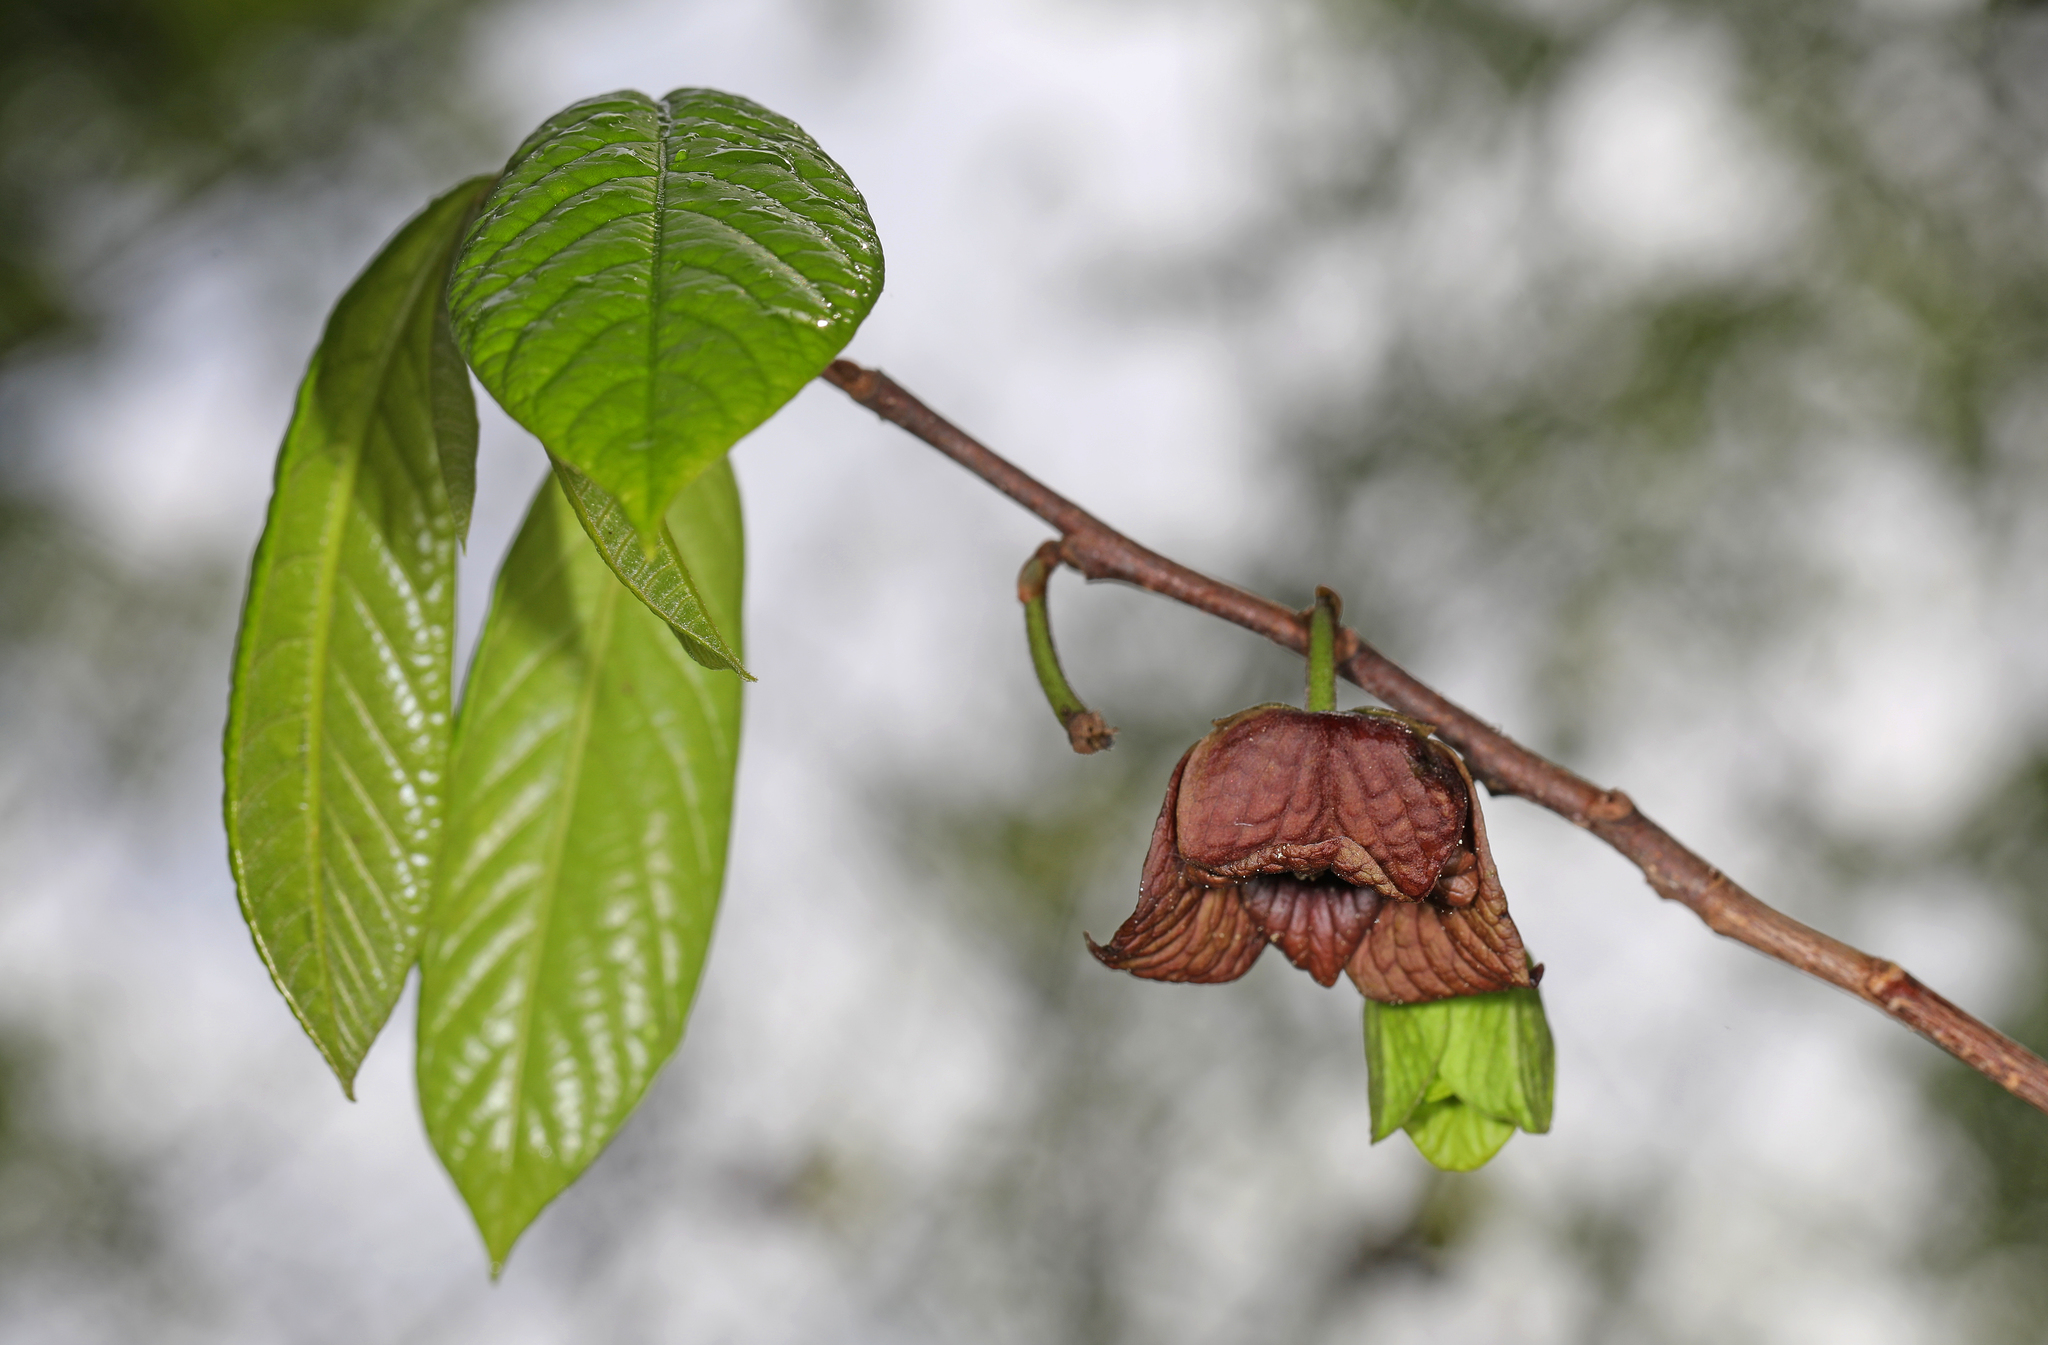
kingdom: Plantae
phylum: Tracheophyta
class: Magnoliopsida
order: Magnoliales
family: Annonaceae
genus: Asimina
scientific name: Asimina triloba
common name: Dog-banana
